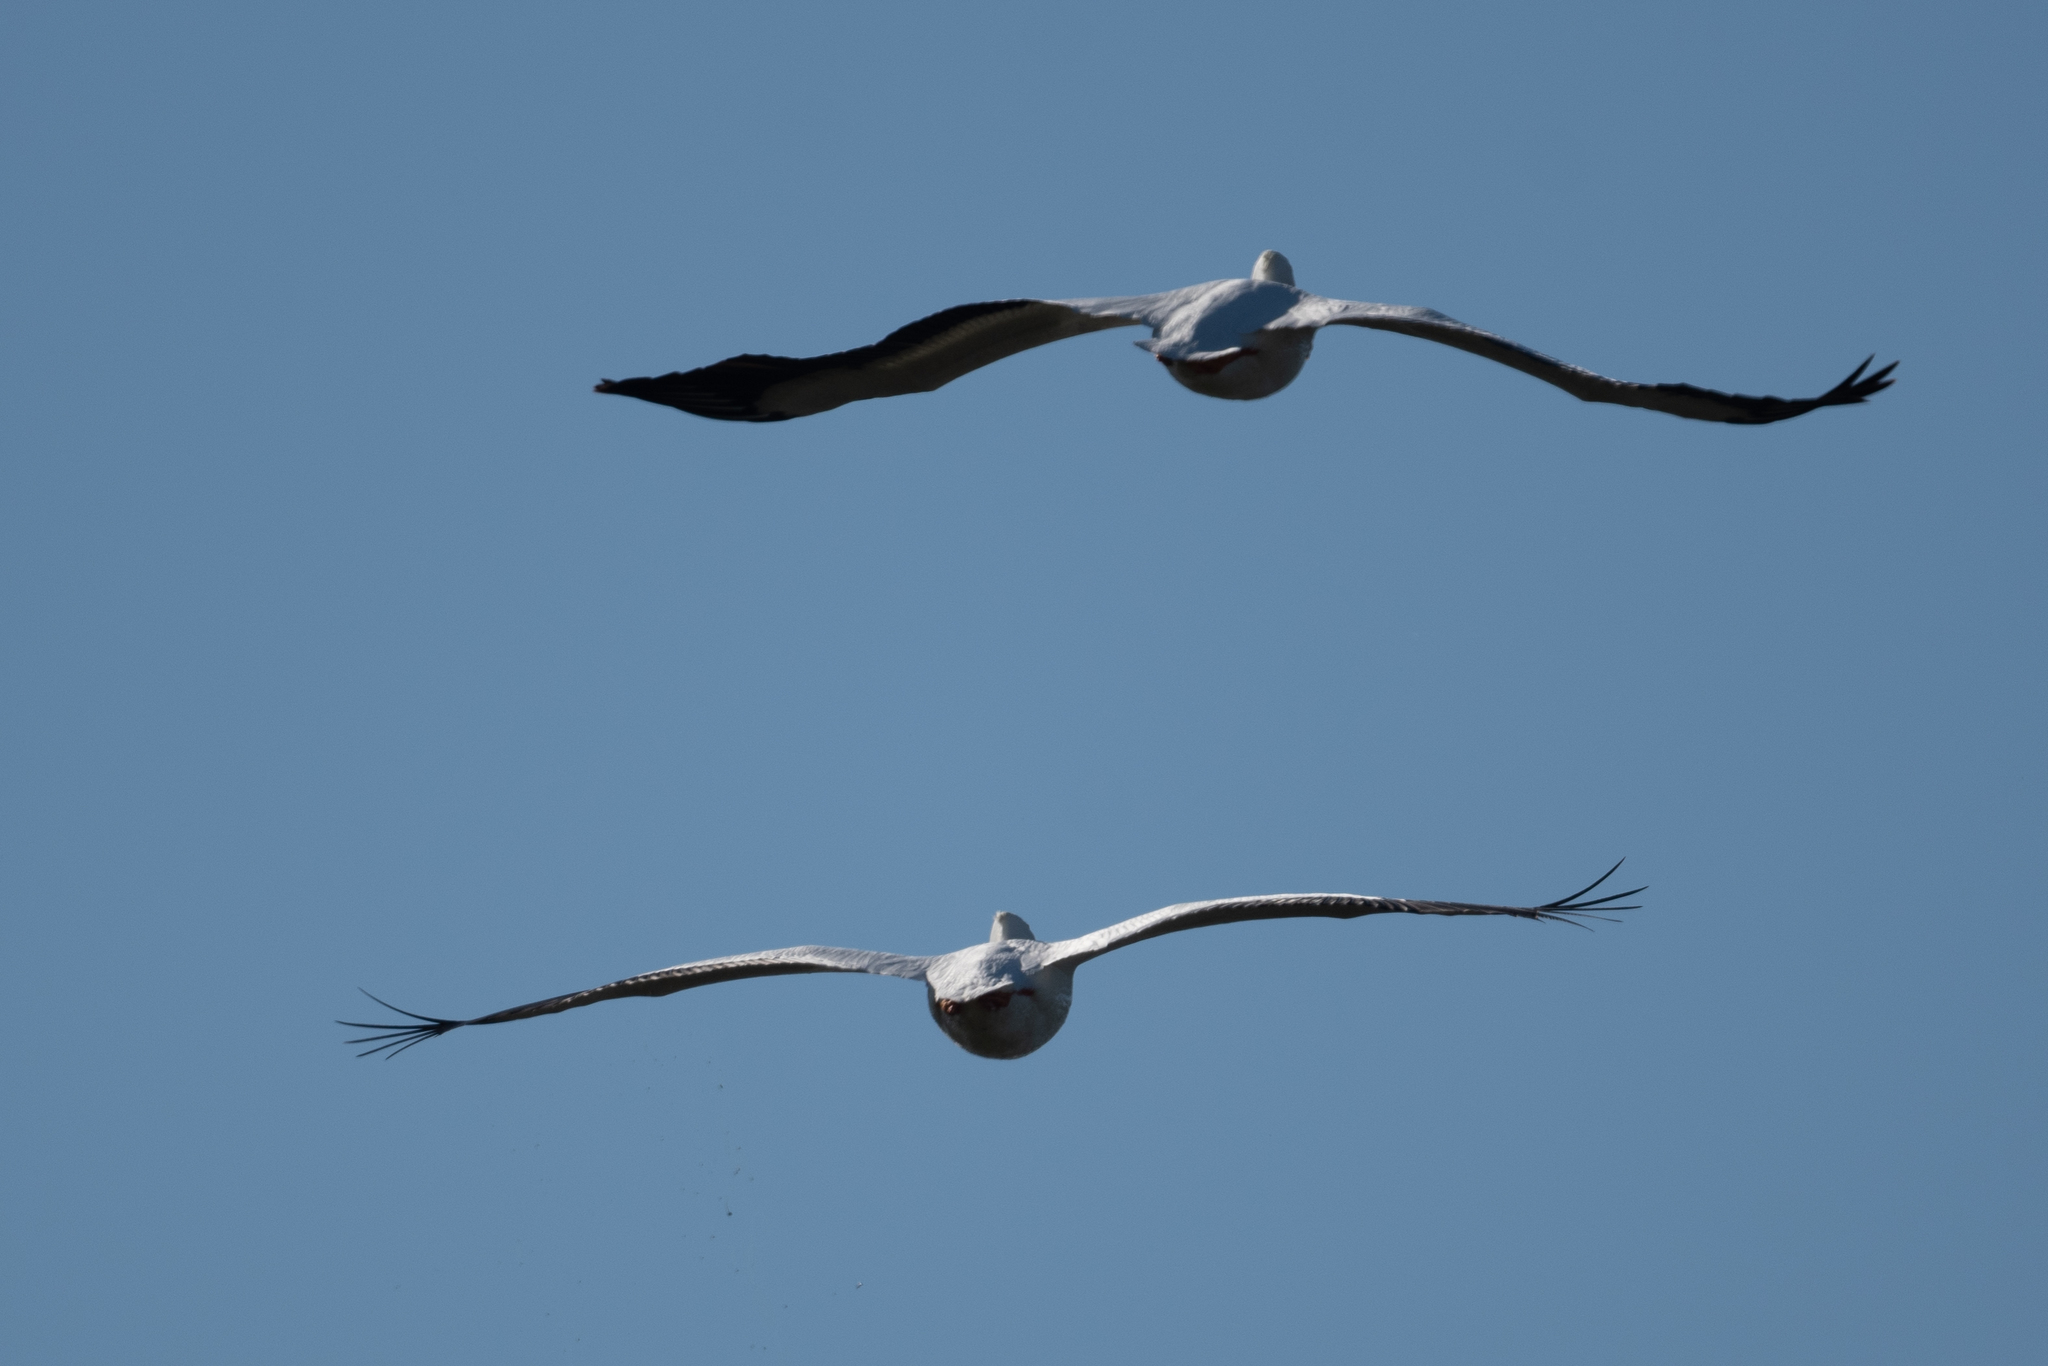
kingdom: Animalia
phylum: Chordata
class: Aves
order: Pelecaniformes
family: Pelecanidae
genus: Pelecanus
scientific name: Pelecanus erythrorhynchos
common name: American white pelican
